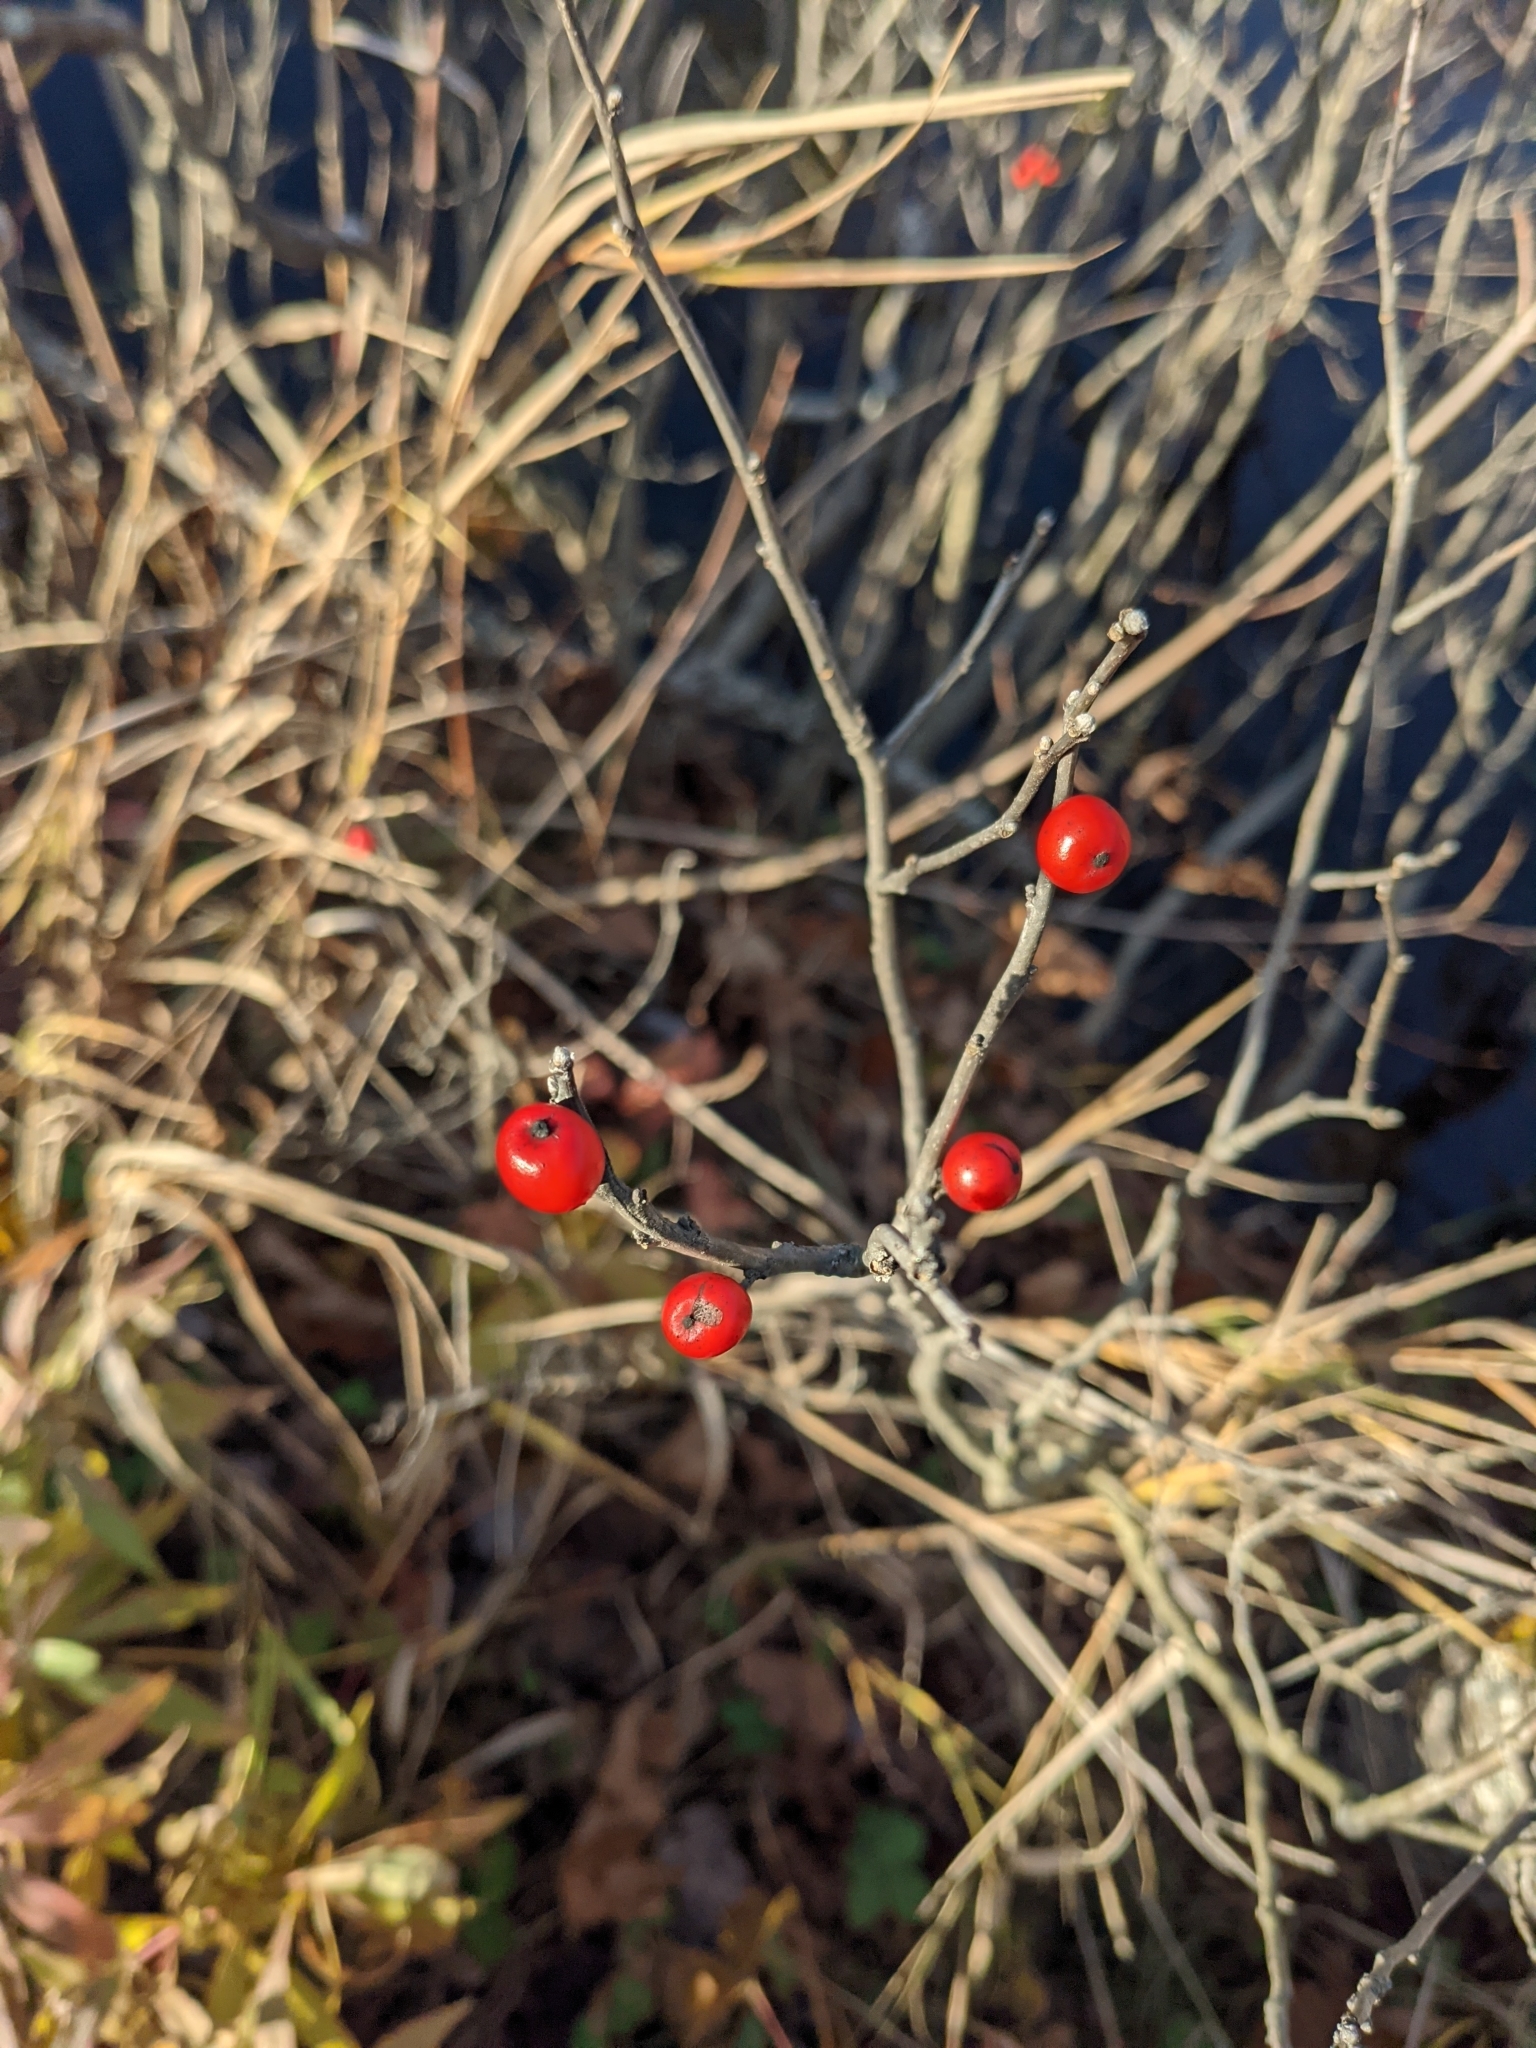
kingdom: Plantae
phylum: Tracheophyta
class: Magnoliopsida
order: Aquifoliales
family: Aquifoliaceae
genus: Ilex
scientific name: Ilex verticillata
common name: Virginia winterberry
